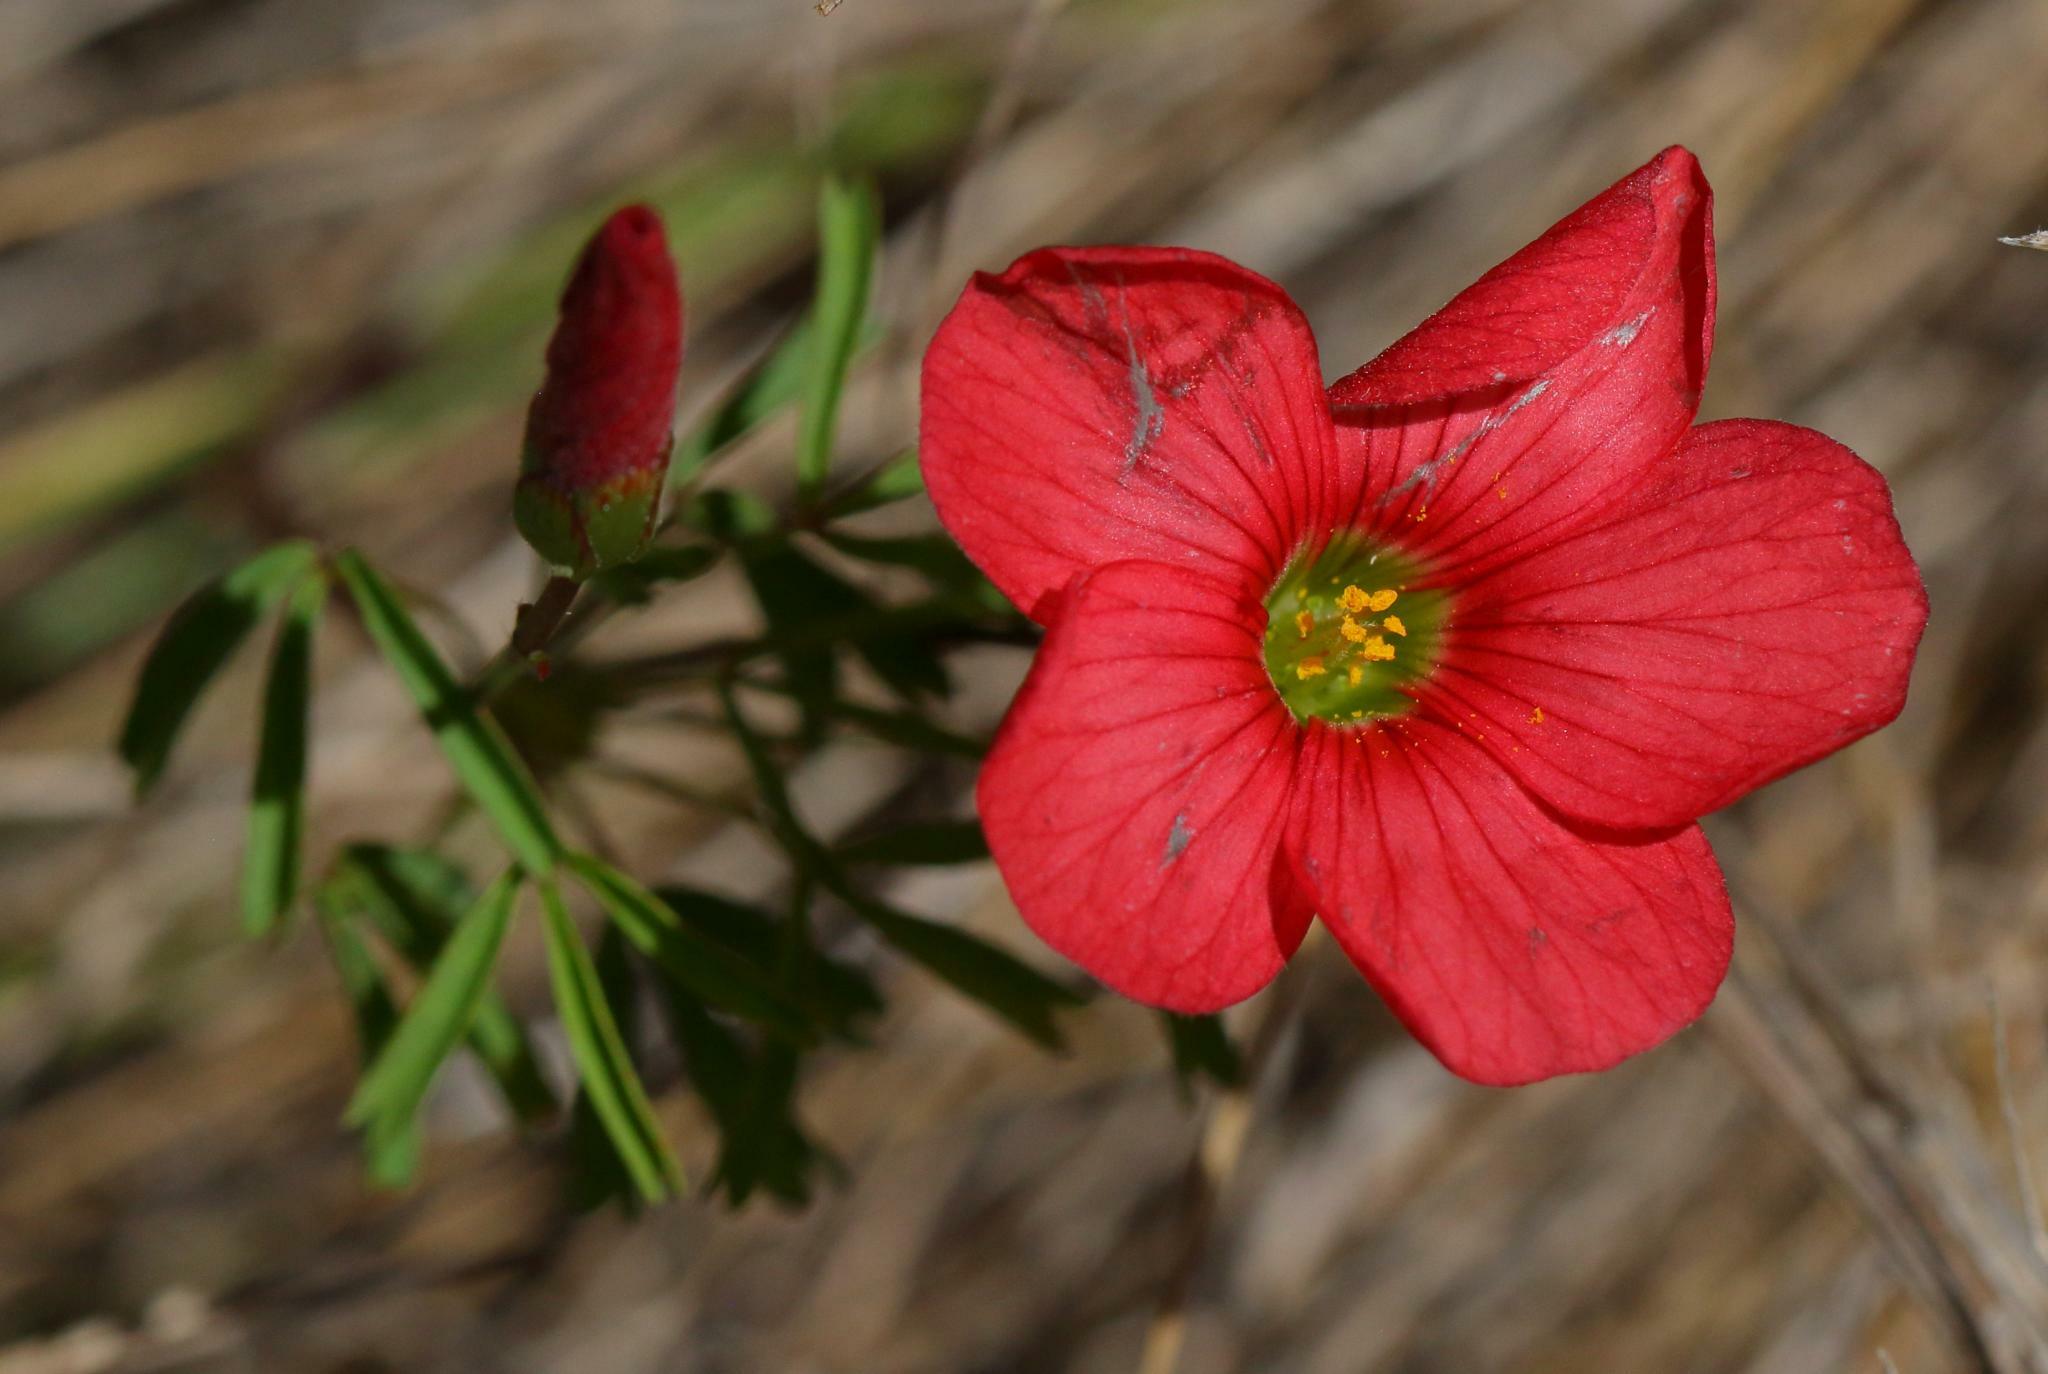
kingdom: Plantae
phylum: Tracheophyta
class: Magnoliopsida
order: Oxalidales
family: Oxalidaceae
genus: Oxalis
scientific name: Oxalis pendulifolia
